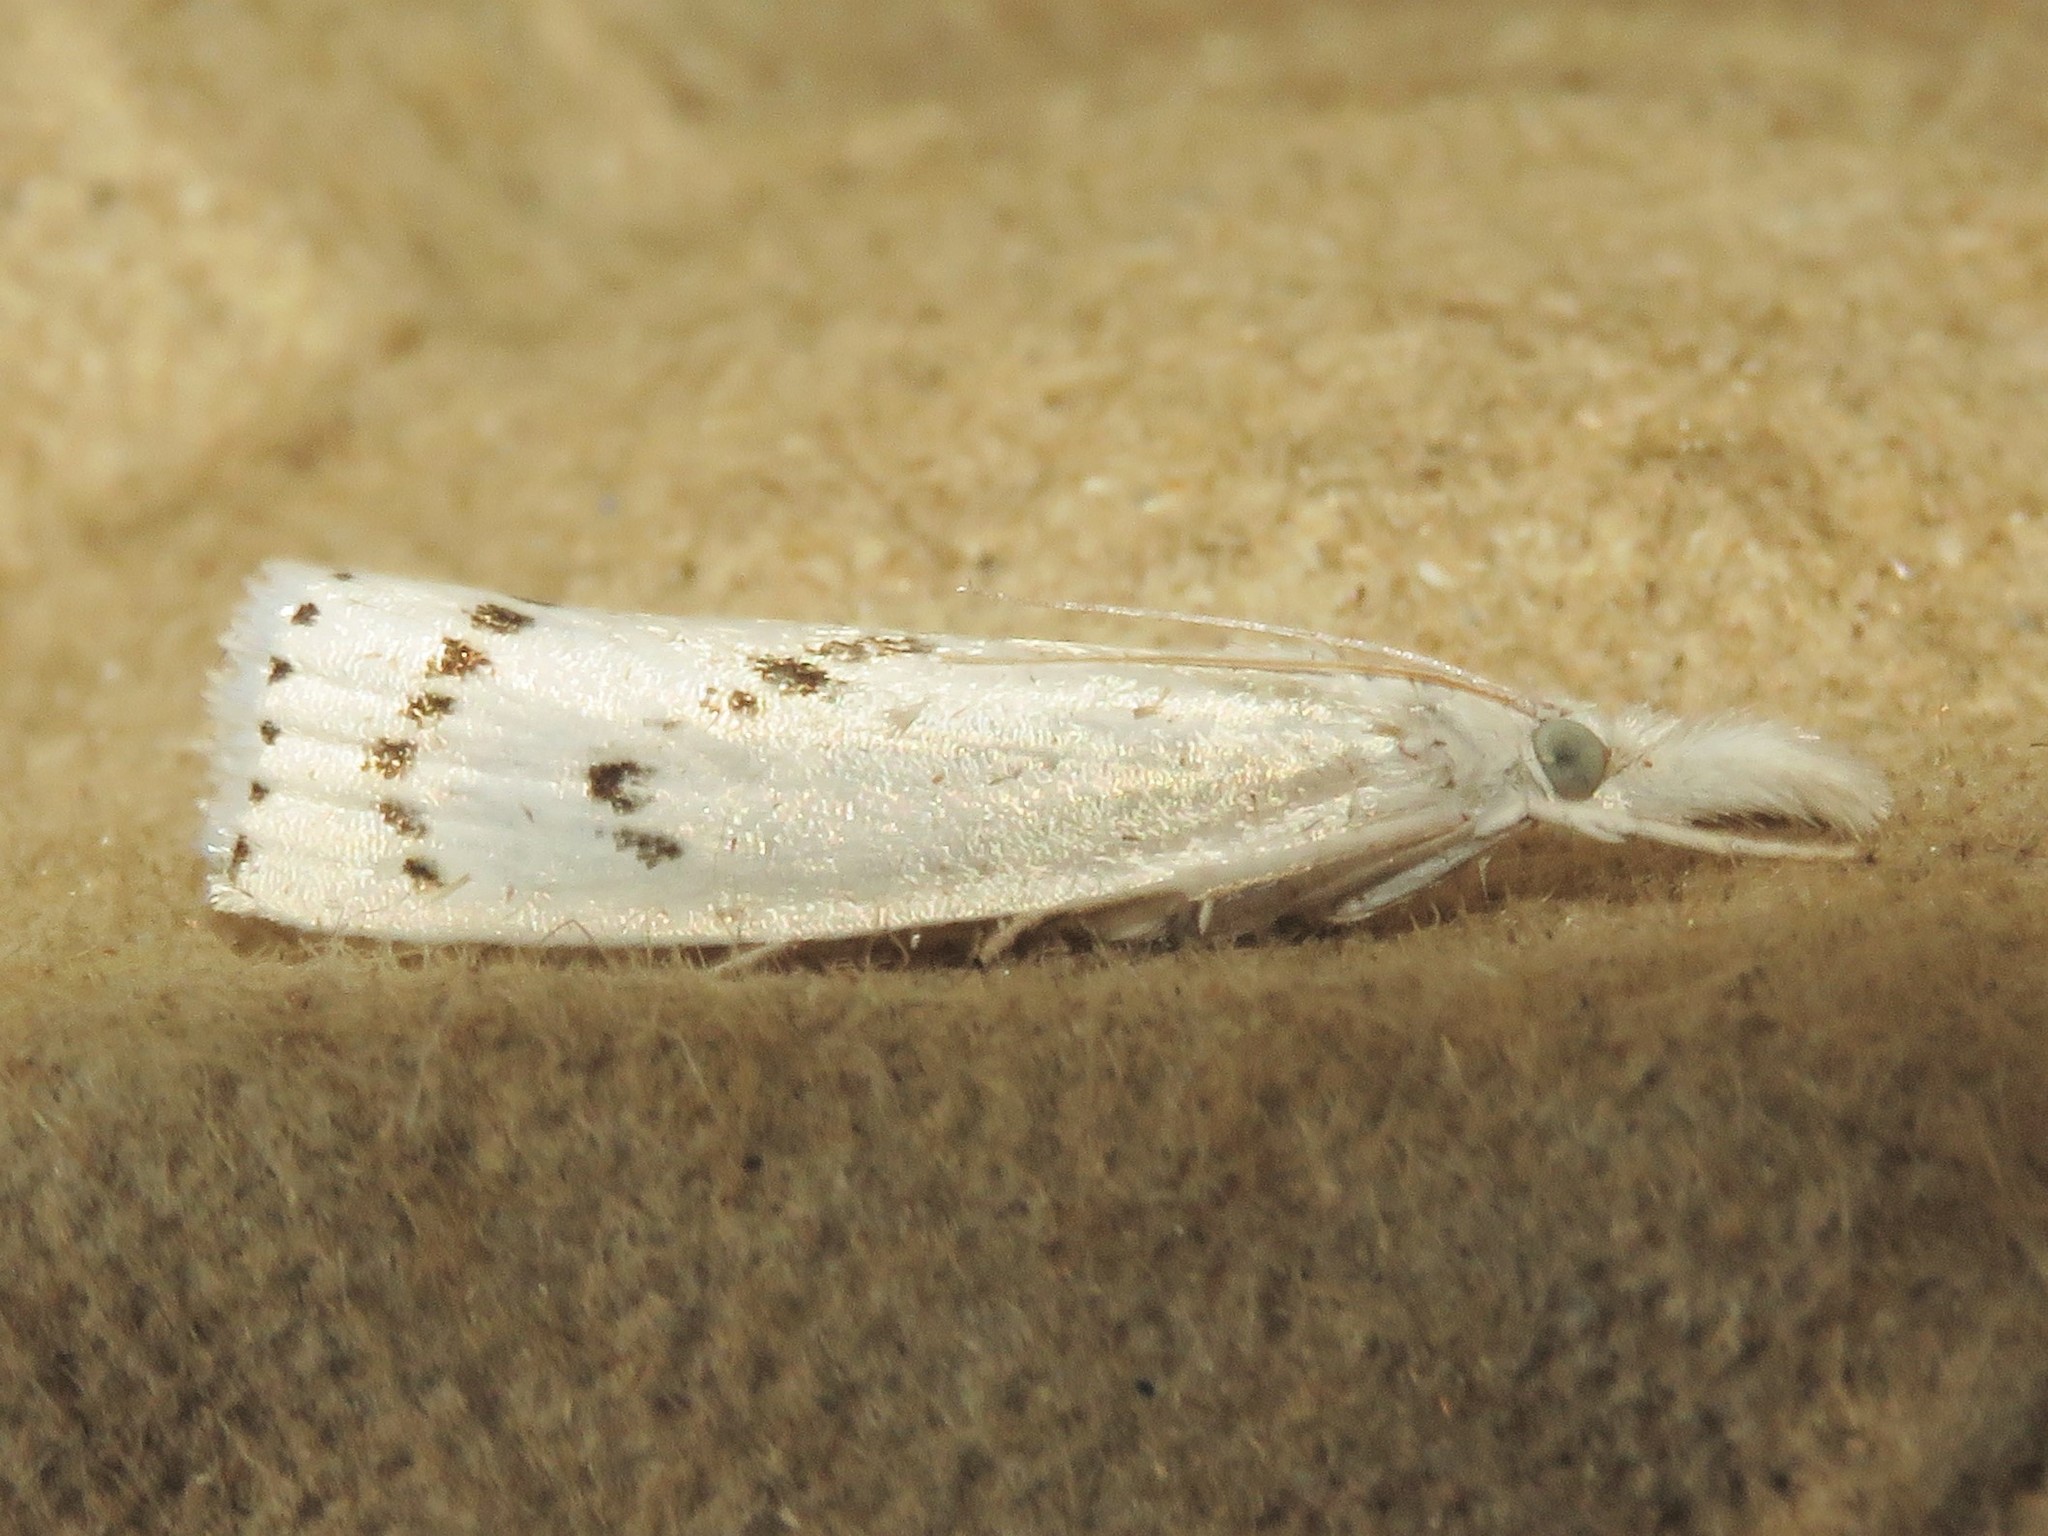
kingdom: Animalia
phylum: Arthropoda
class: Insecta
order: Lepidoptera
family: Crambidae
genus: Crambus
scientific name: Crambus Arequipa turbatella
